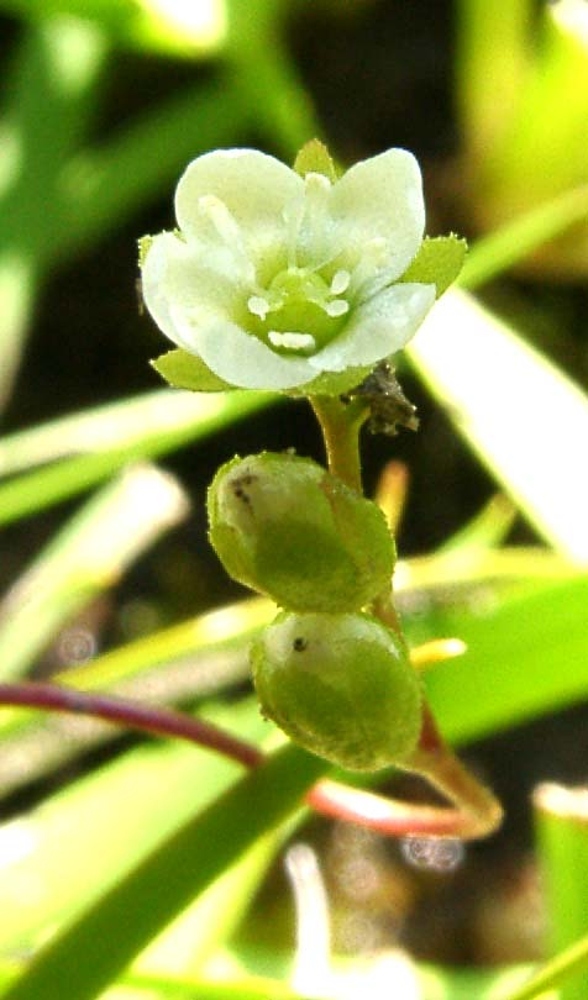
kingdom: Plantae
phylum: Tracheophyta
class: Magnoliopsida
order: Caryophyllales
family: Droseraceae
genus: Drosera
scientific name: Drosera rotundifolia
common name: Round-leaved sundew
